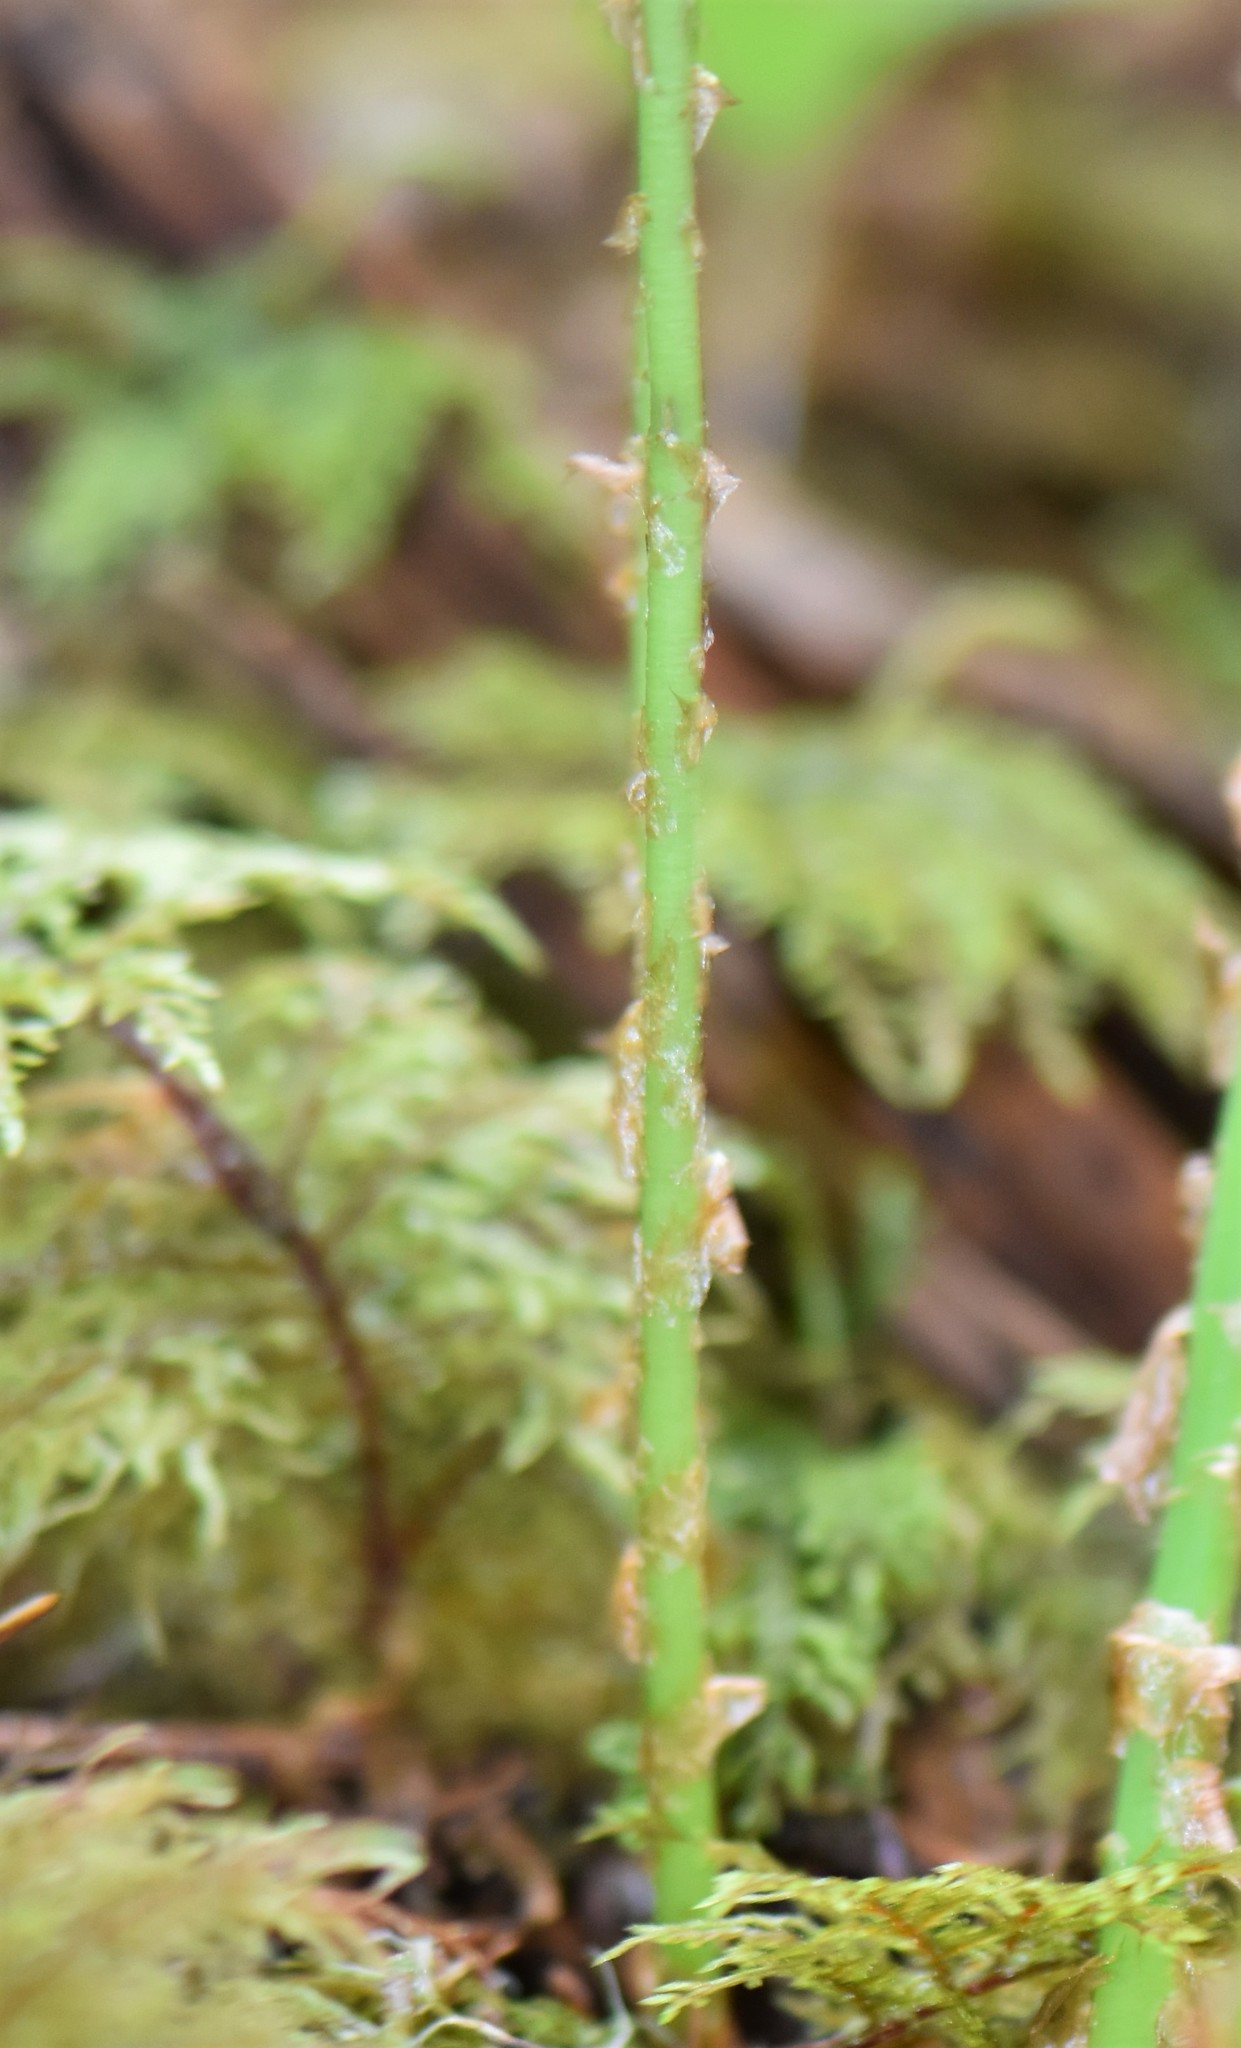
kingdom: Plantae
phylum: Tracheophyta
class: Polypodiopsida
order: Polypodiales
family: Dryopteridaceae
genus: Dryopteris
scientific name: Dryopteris expansa
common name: Northern buckler fern
